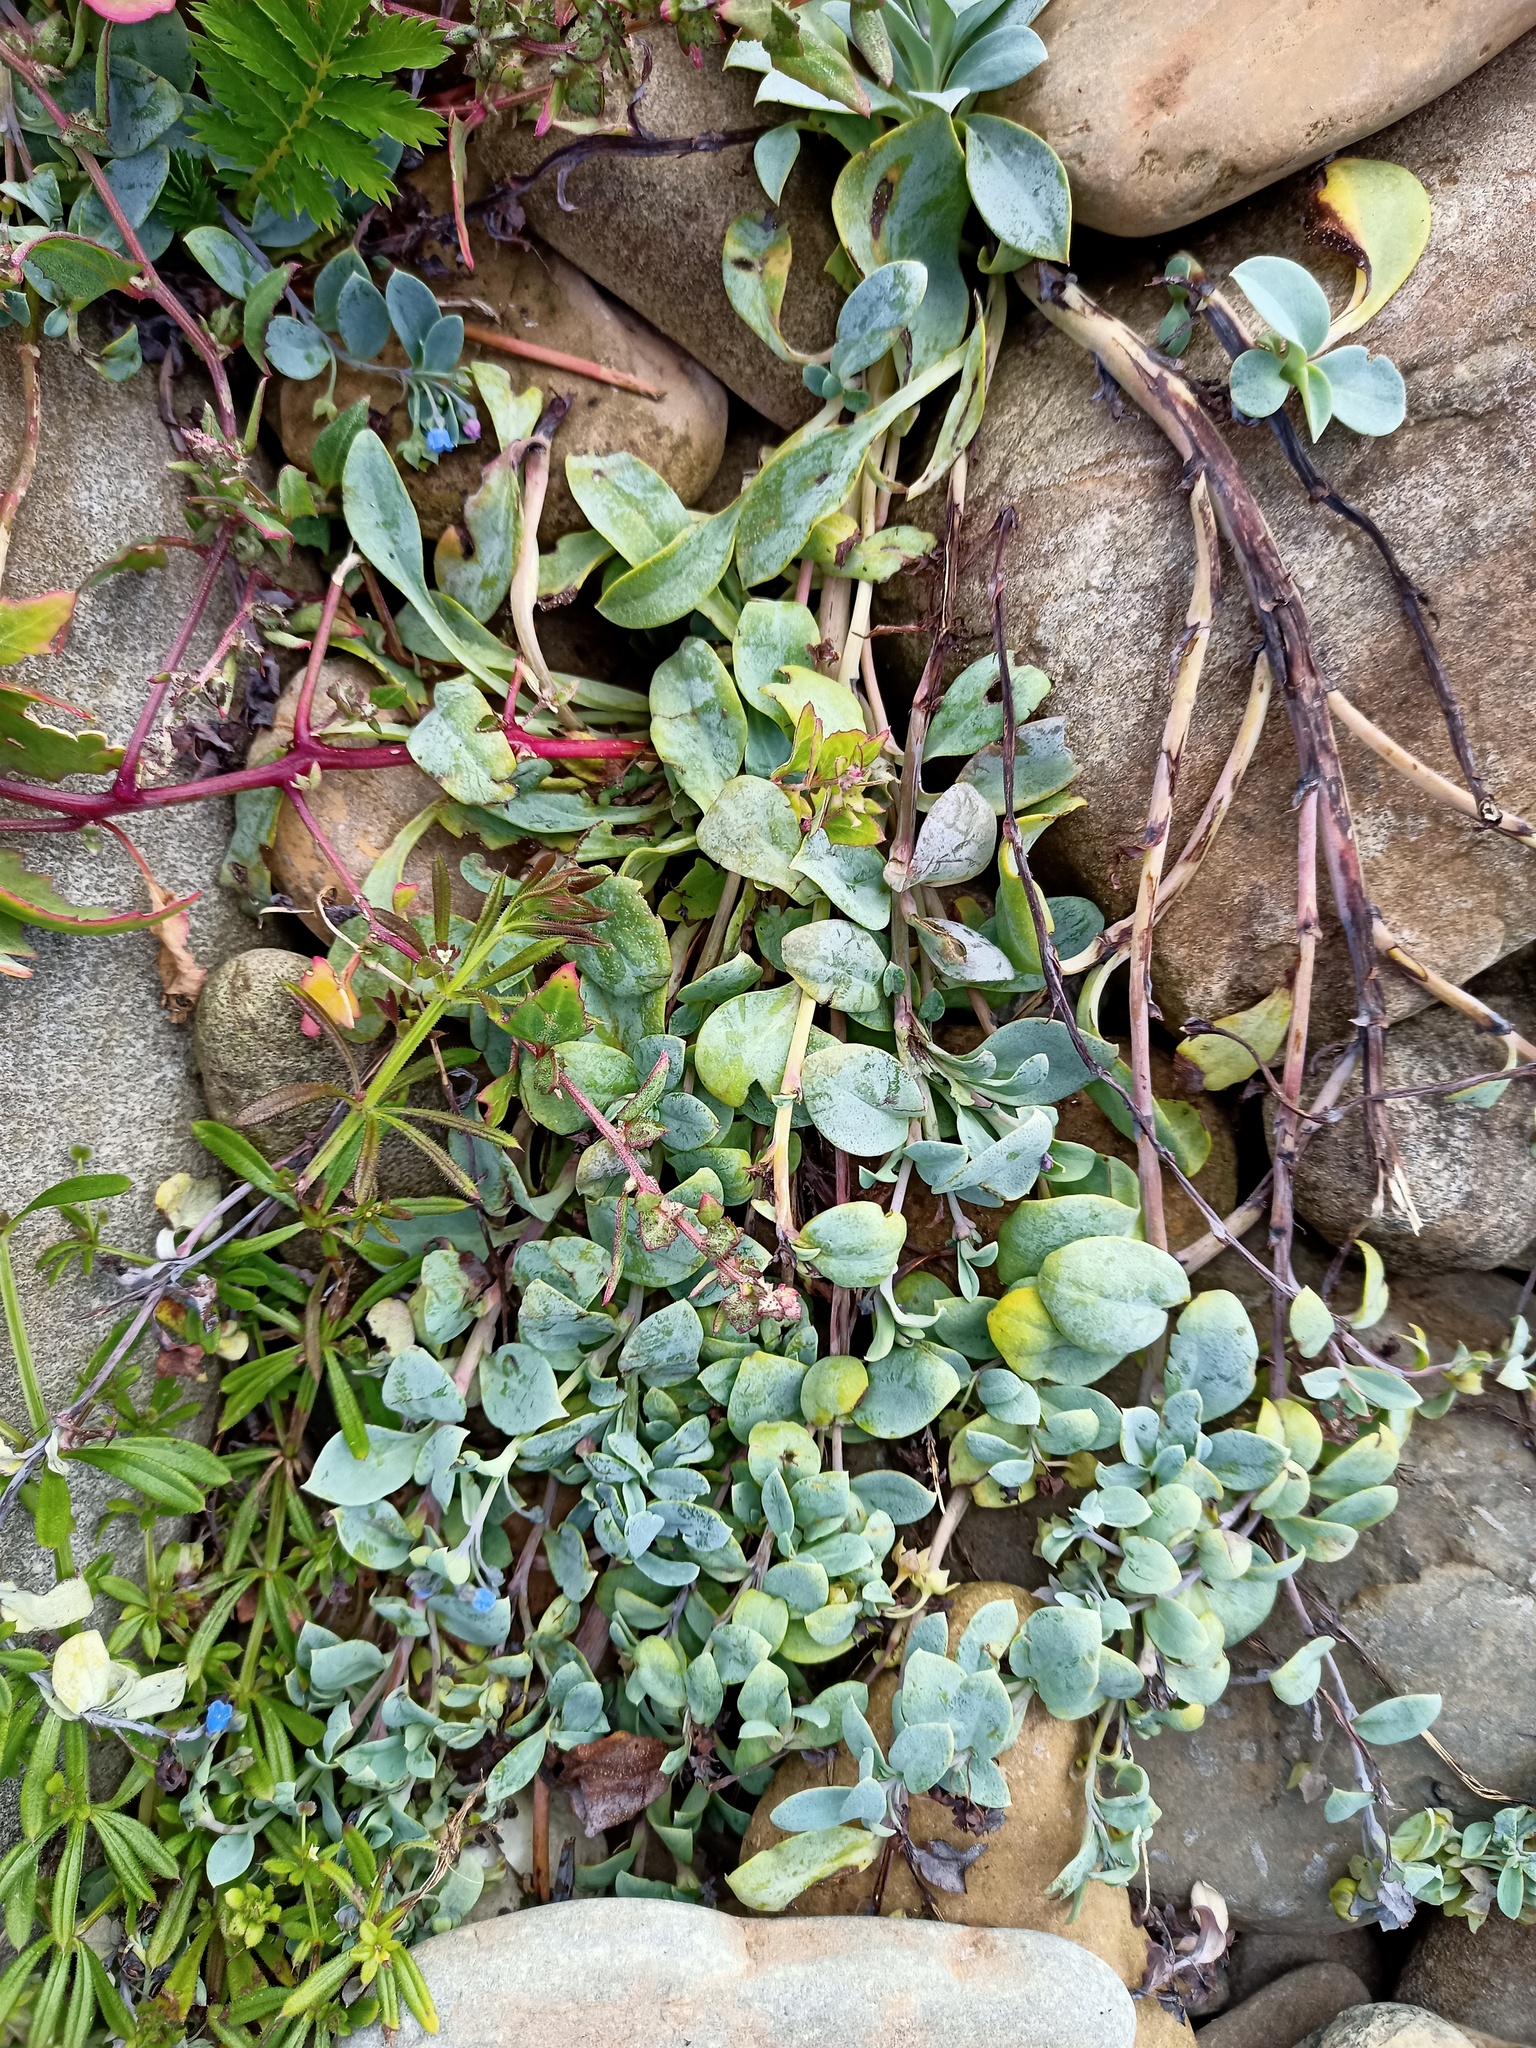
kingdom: Plantae
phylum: Tracheophyta
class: Magnoliopsida
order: Boraginales
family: Boraginaceae
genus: Mertensia
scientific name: Mertensia maritima
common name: Oysterplant
